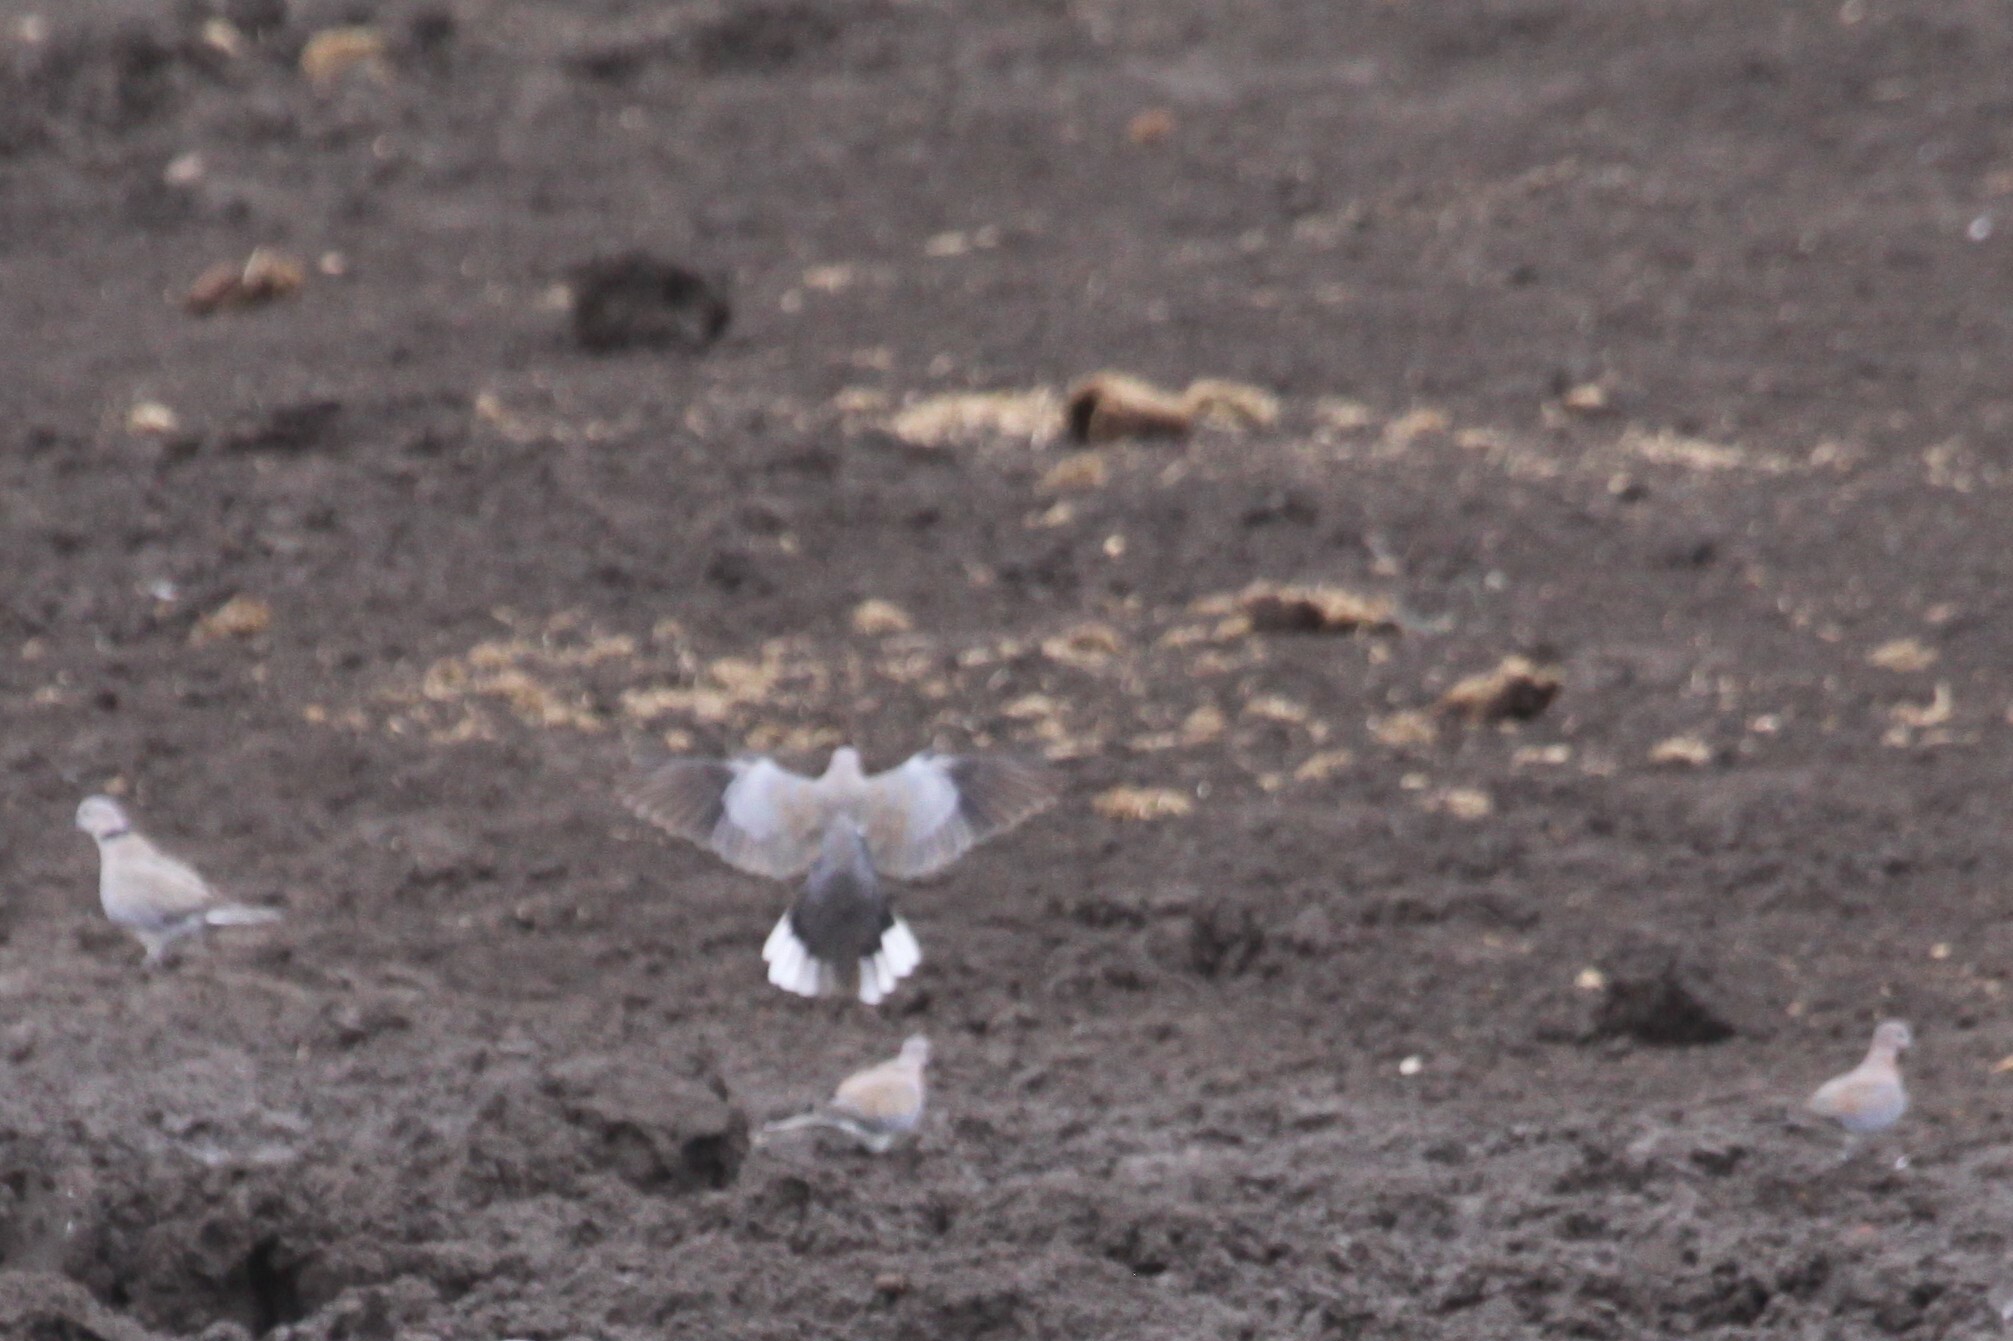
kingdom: Animalia
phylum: Chordata
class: Aves
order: Columbiformes
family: Columbidae
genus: Streptopelia
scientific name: Streptopelia capicola
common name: Ring-necked dove
